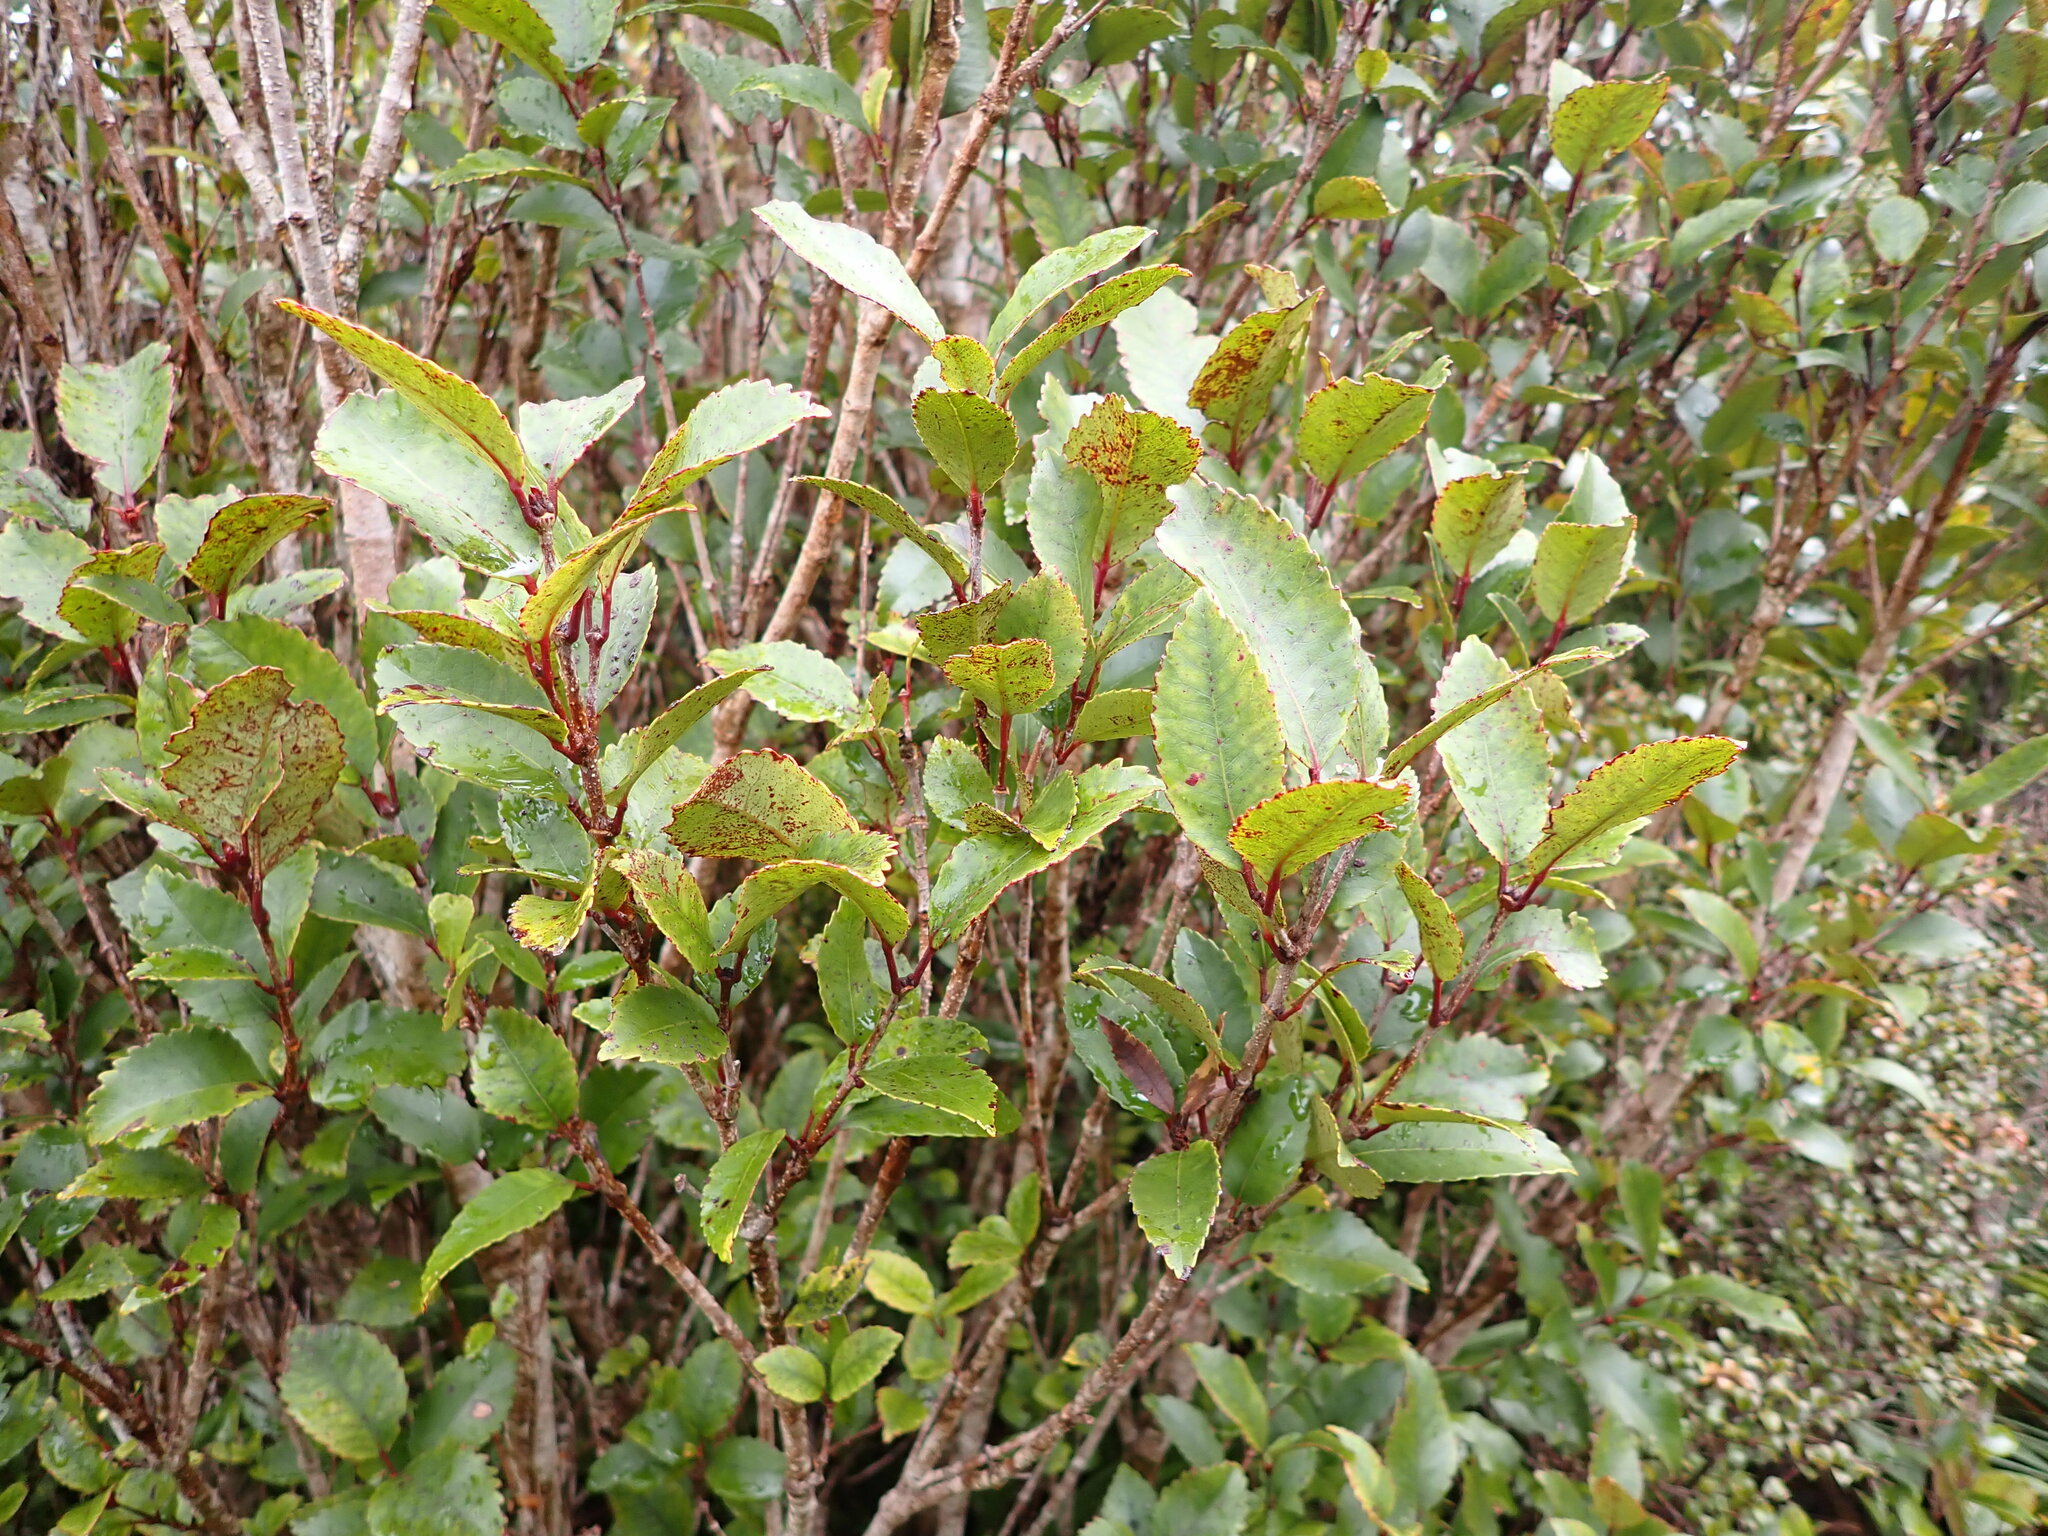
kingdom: Plantae
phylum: Tracheophyta
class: Magnoliopsida
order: Oxalidales
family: Cunoniaceae
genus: Pterophylla
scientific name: Pterophylla racemosa
